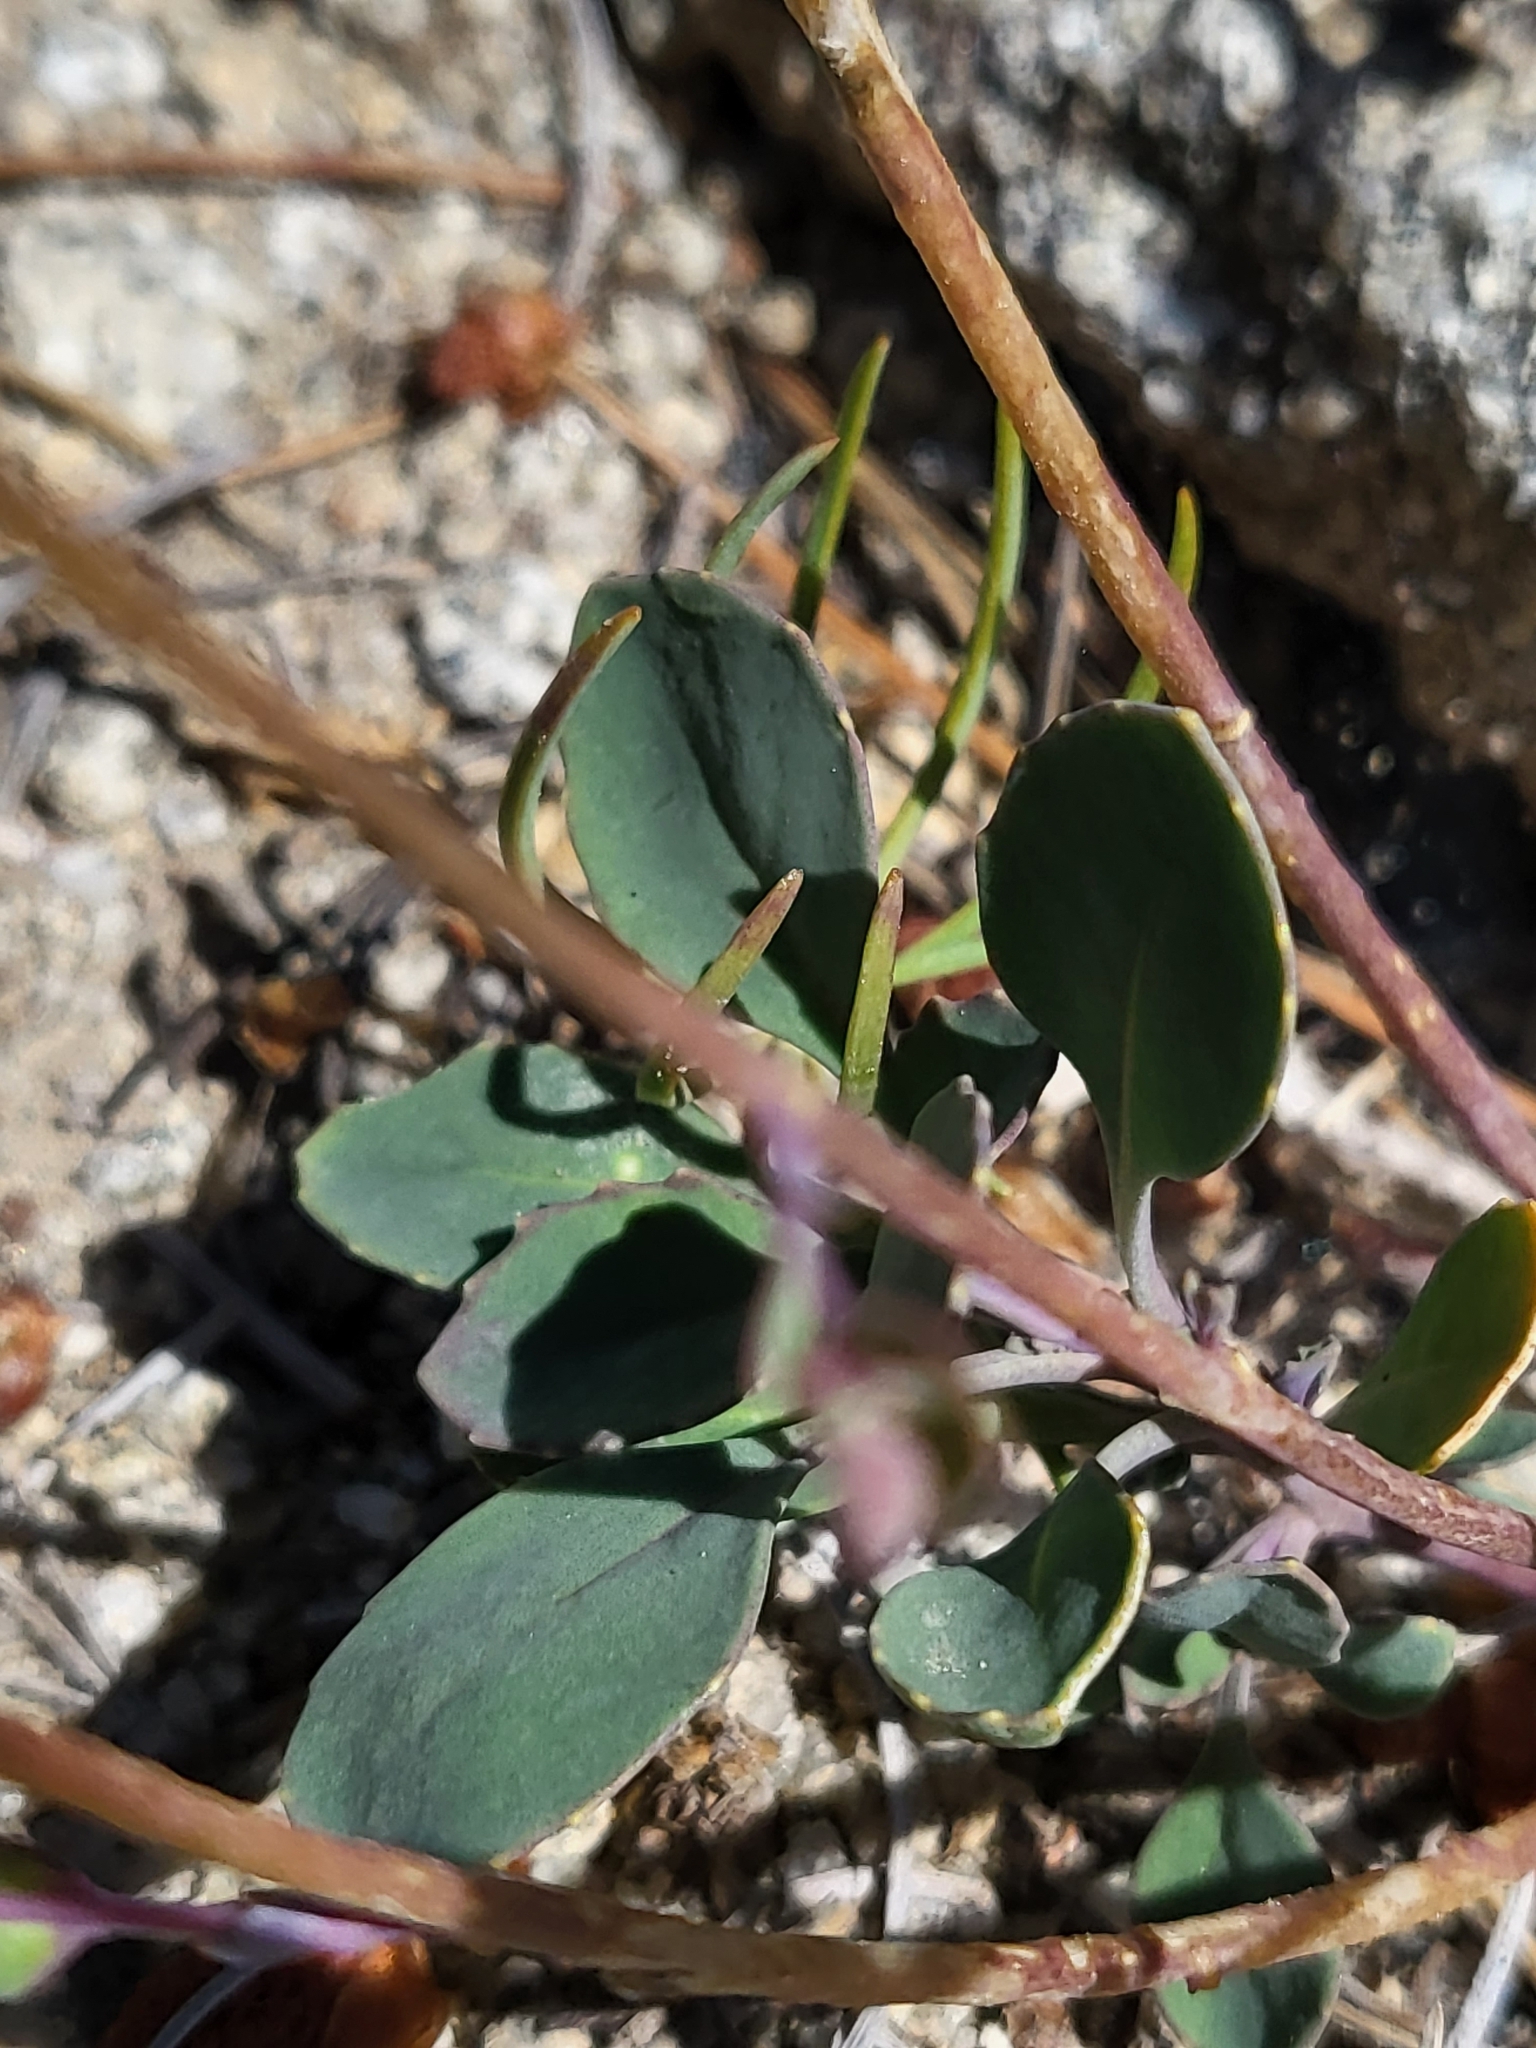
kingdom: Plantae
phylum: Tracheophyta
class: Magnoliopsida
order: Brassicales
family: Brassicaceae
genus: Streptanthus
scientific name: Streptanthus tortuosus
